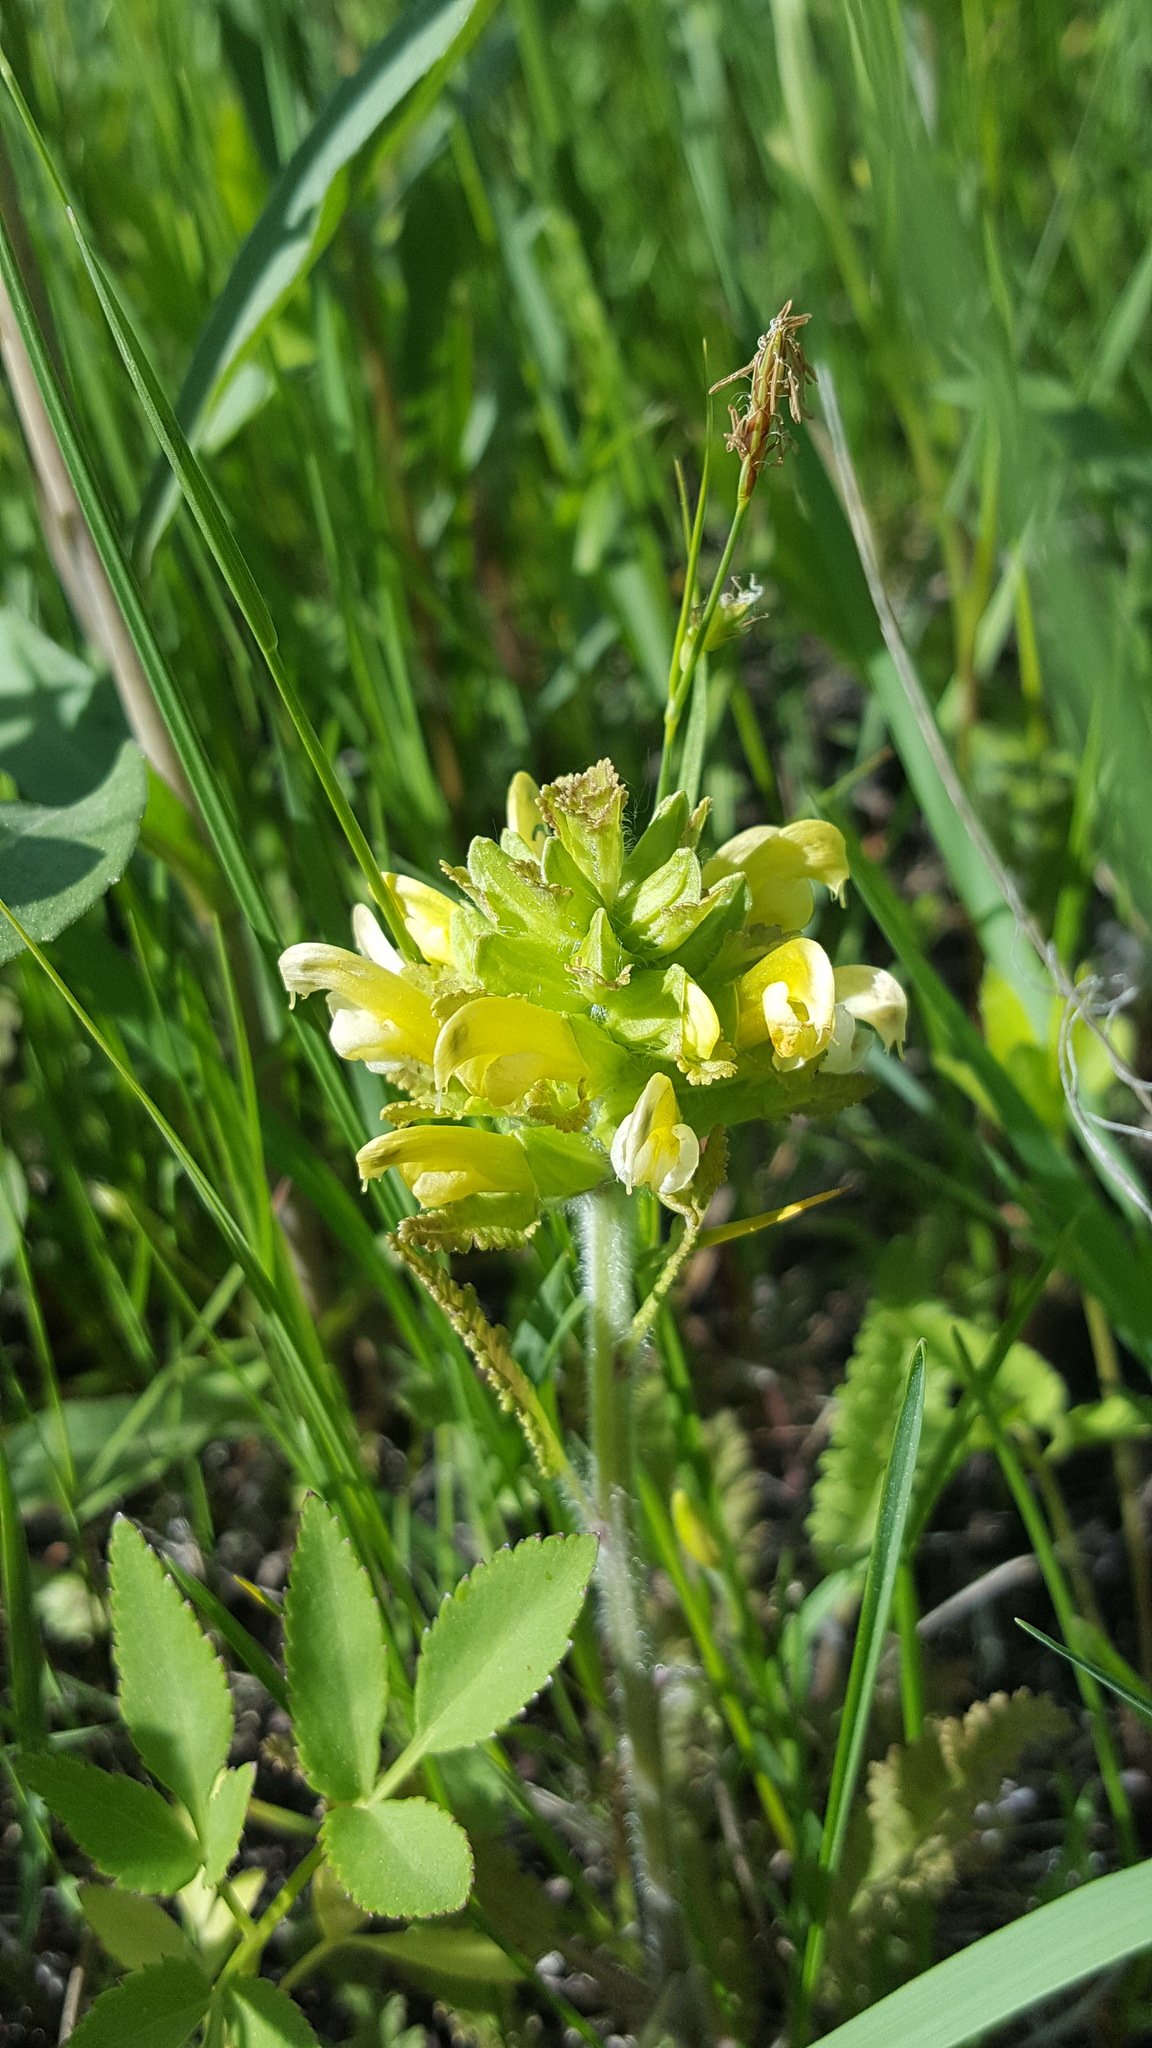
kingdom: Plantae
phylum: Tracheophyta
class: Magnoliopsida
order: Lamiales
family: Orobanchaceae
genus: Pedicularis
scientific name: Pedicularis canadensis
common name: Early lousewort
